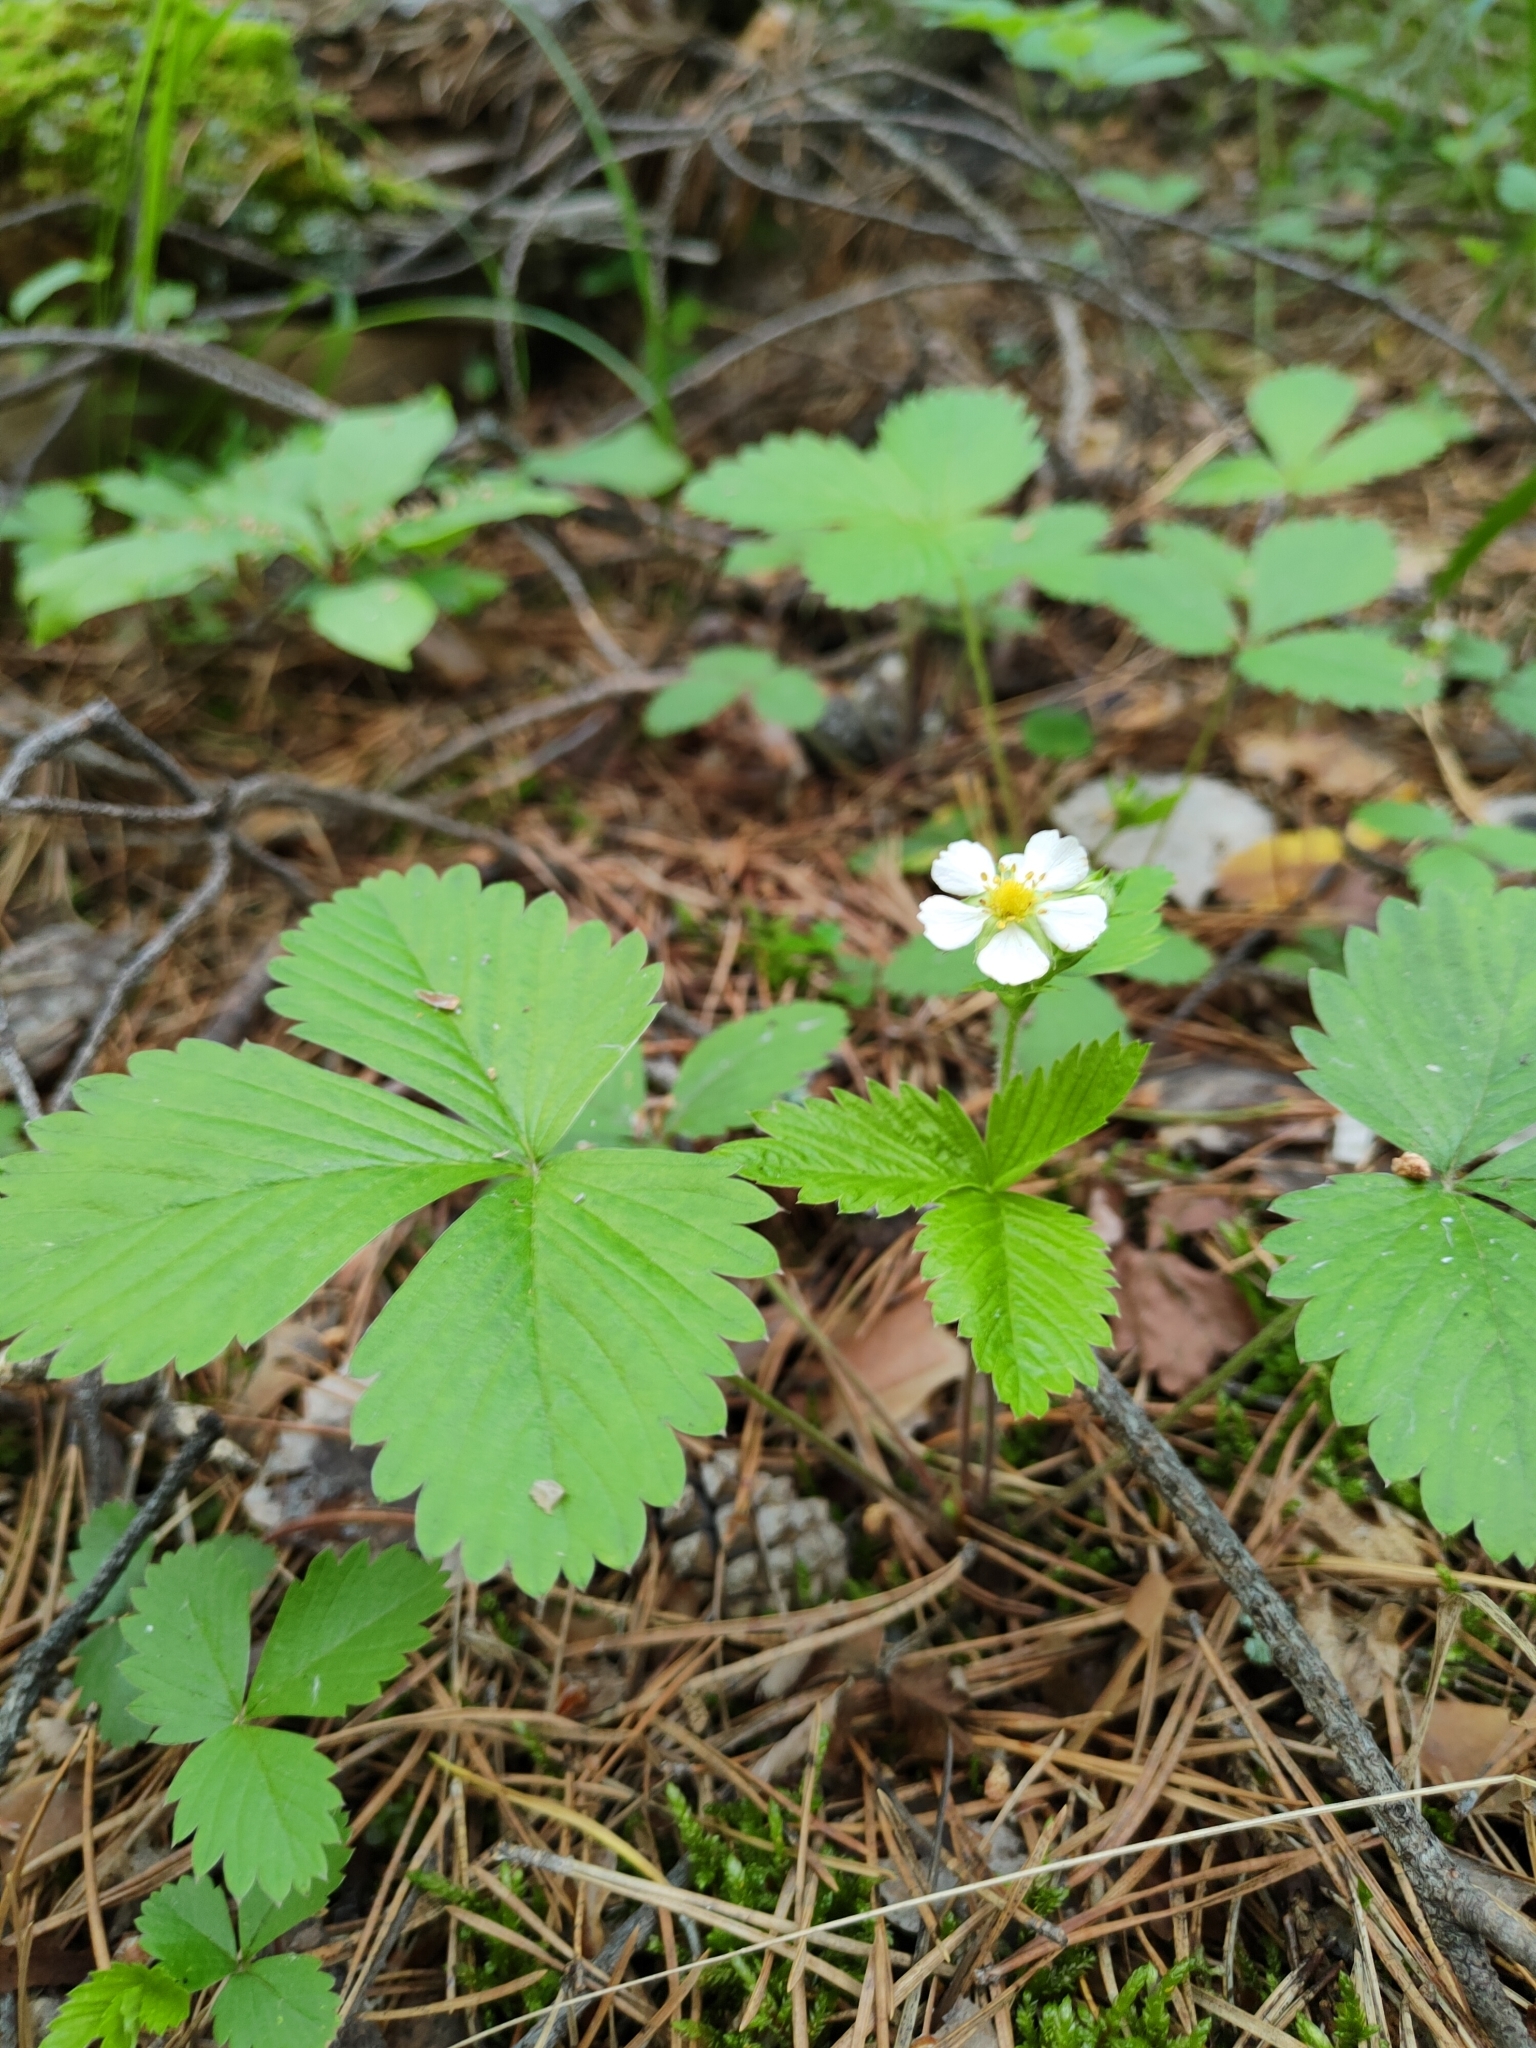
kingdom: Plantae
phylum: Tracheophyta
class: Magnoliopsida
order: Rosales
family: Rosaceae
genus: Fragaria
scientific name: Fragaria vesca
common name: Wild strawberry
